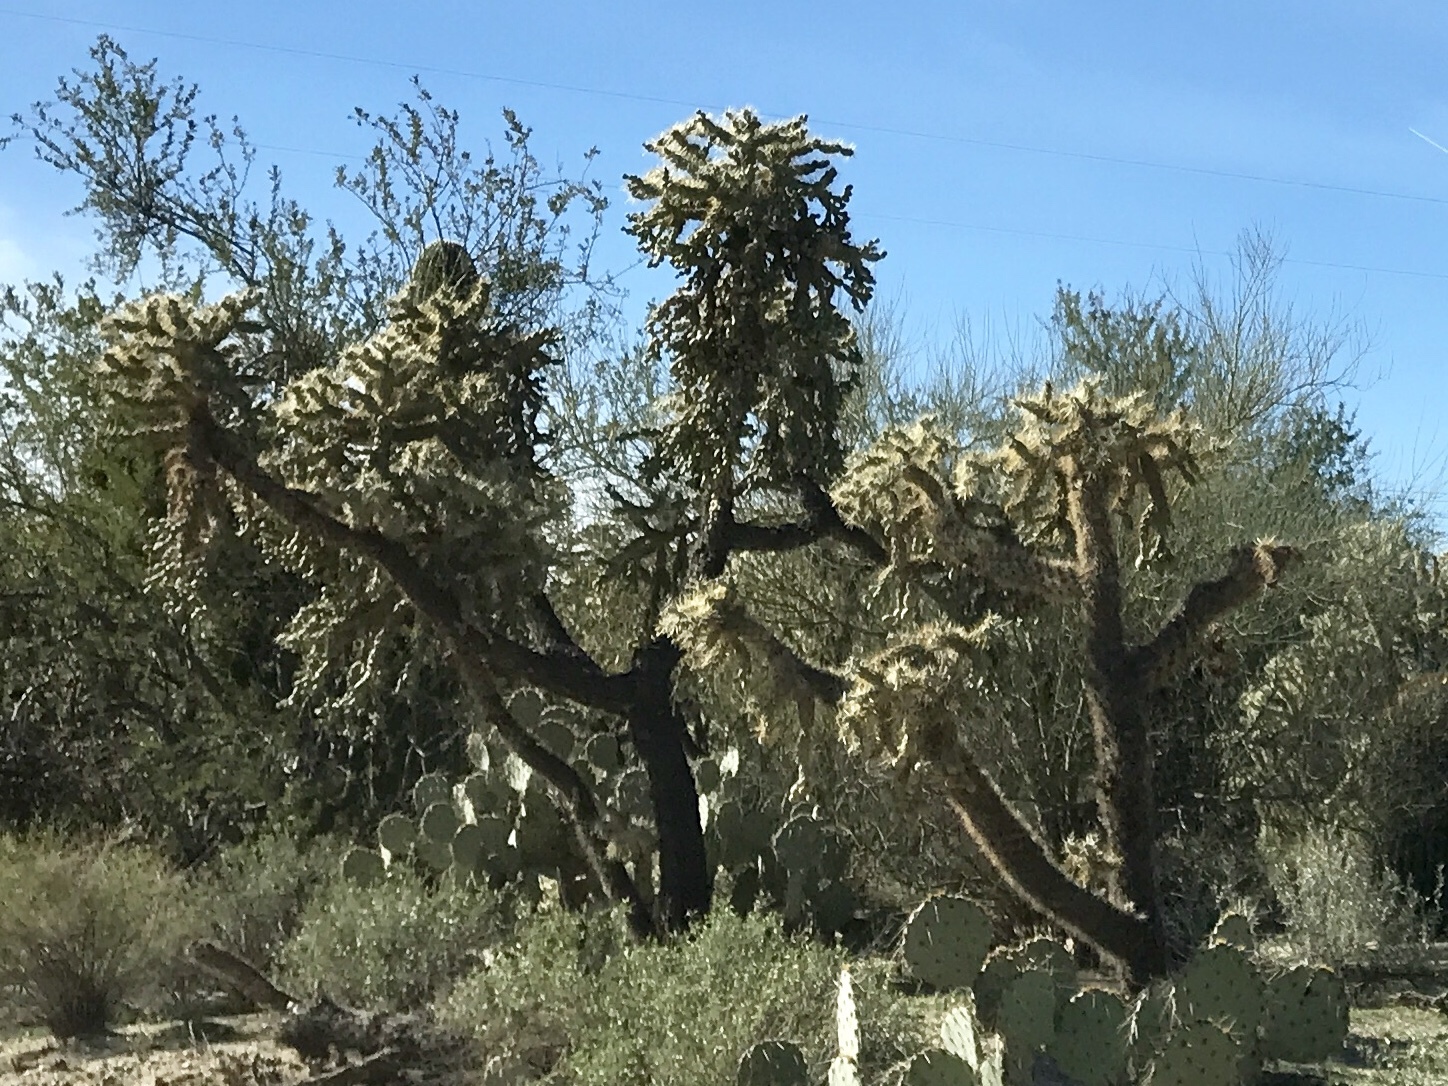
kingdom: Plantae
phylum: Tracheophyta
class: Magnoliopsida
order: Caryophyllales
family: Cactaceae
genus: Cylindropuntia
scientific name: Cylindropuntia fulgida
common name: Jumping cholla
